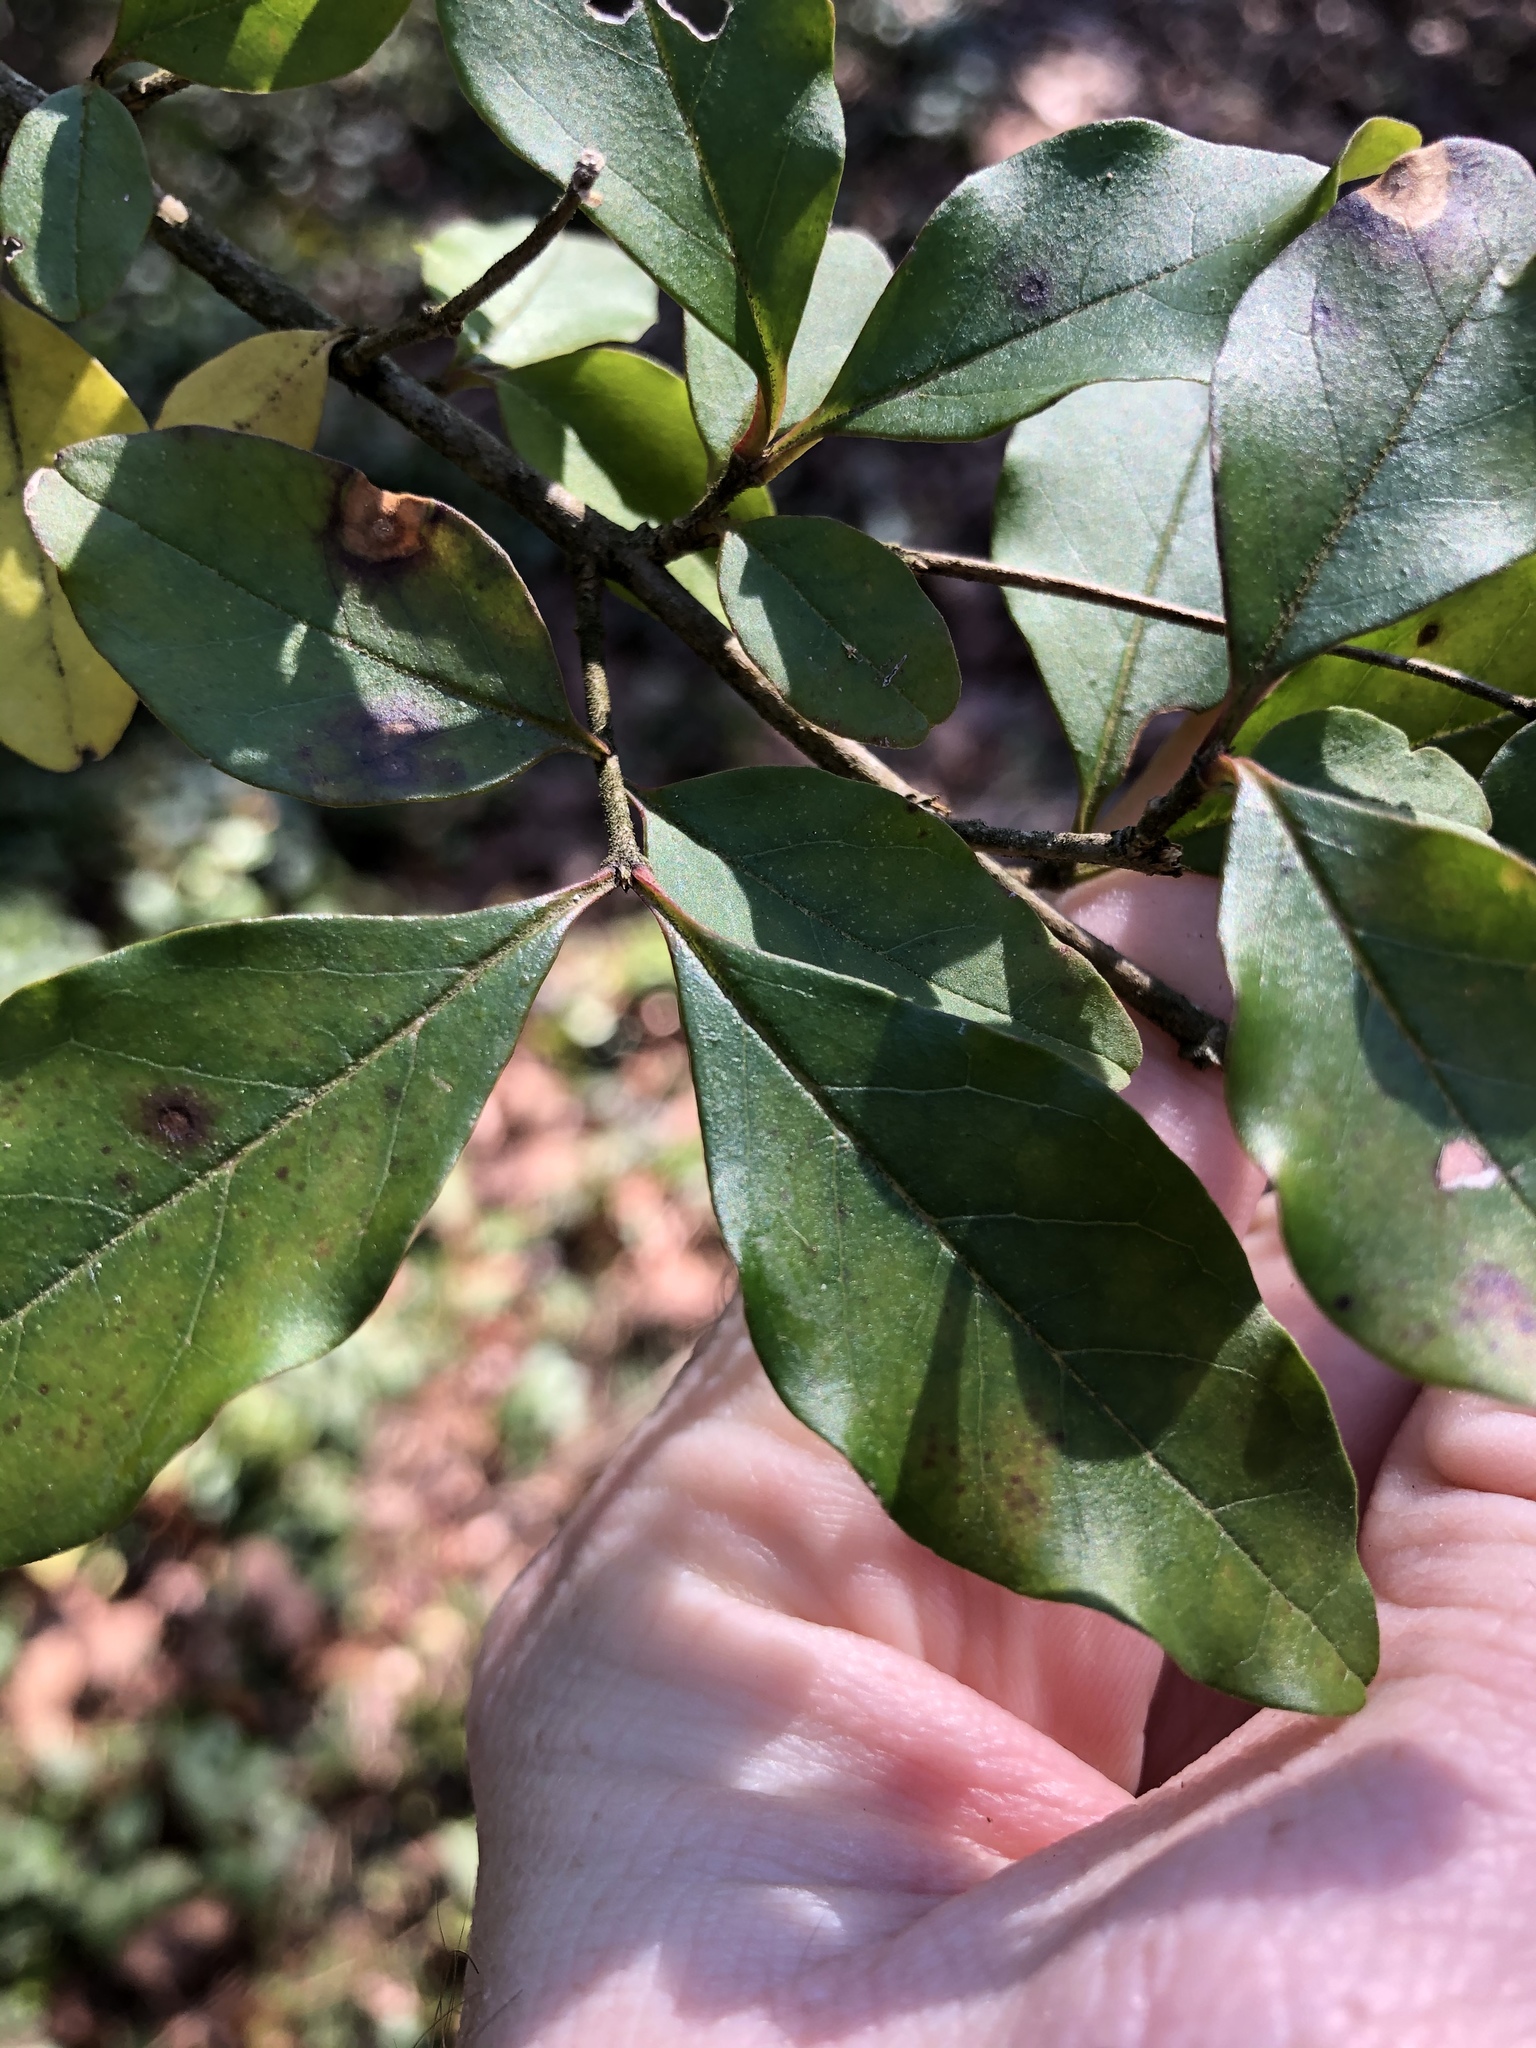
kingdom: Plantae
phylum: Tracheophyta
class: Magnoliopsida
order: Lamiales
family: Oleaceae
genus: Ligustrum
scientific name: Ligustrum sinense
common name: Chinese privet
